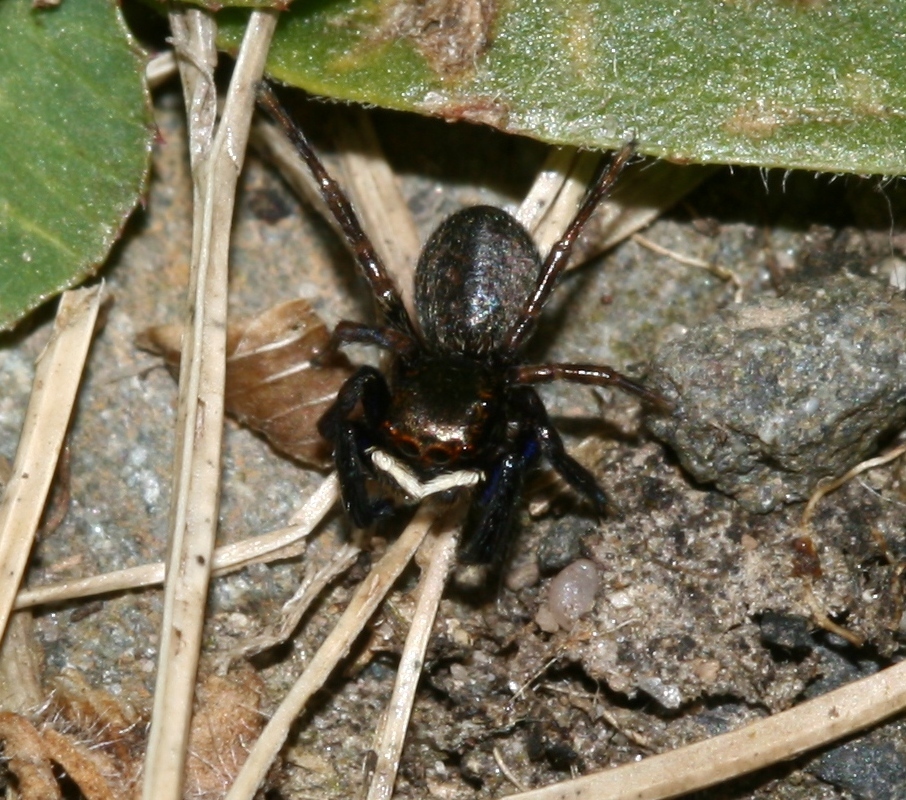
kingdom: Animalia
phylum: Arthropoda
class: Arachnida
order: Araneae
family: Salticidae
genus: Euophrys
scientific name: Euophrys frontalis
